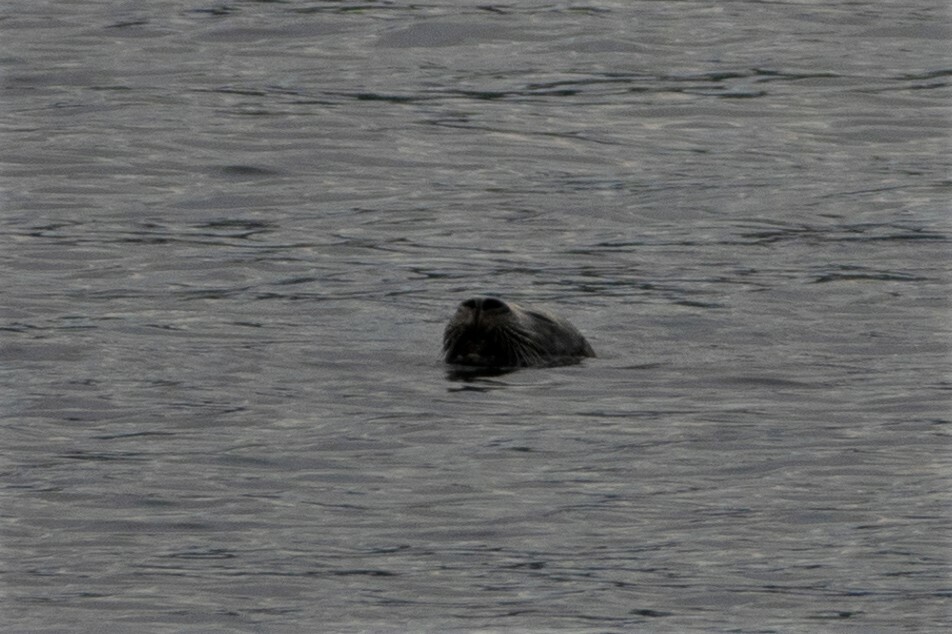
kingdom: Animalia
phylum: Chordata
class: Mammalia
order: Carnivora
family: Phocidae
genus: Phoca
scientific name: Phoca vitulina
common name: Harbor seal
